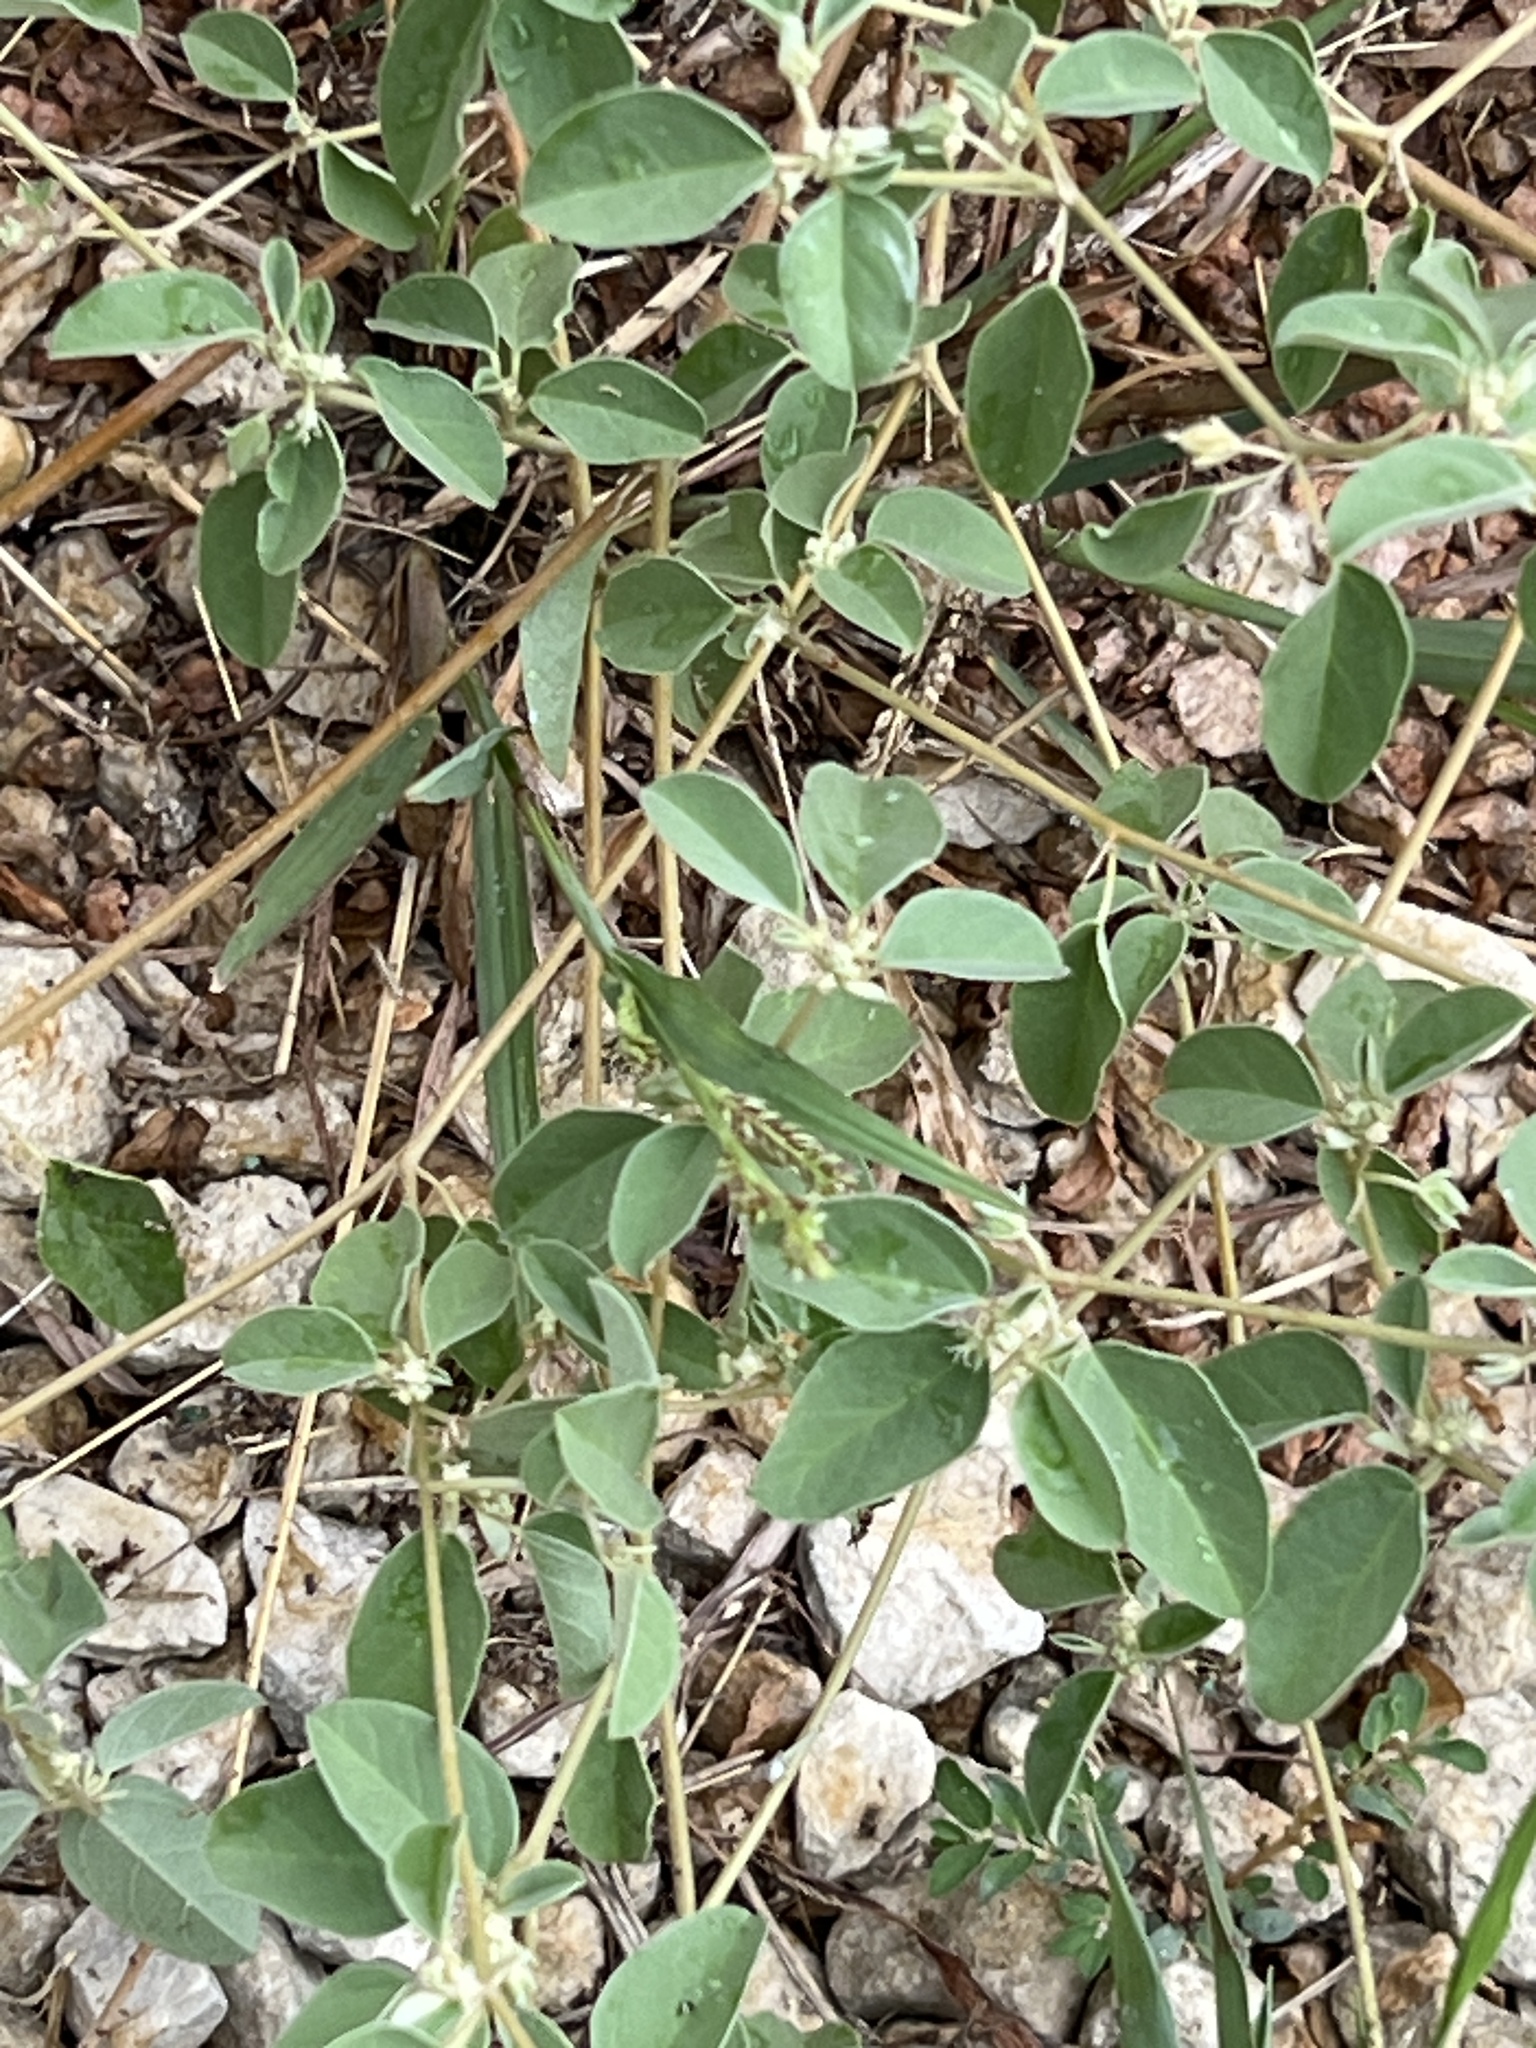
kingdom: Plantae
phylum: Tracheophyta
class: Magnoliopsida
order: Malpighiales
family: Euphorbiaceae
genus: Croton
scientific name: Croton monanthogynus
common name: One-seed croton
